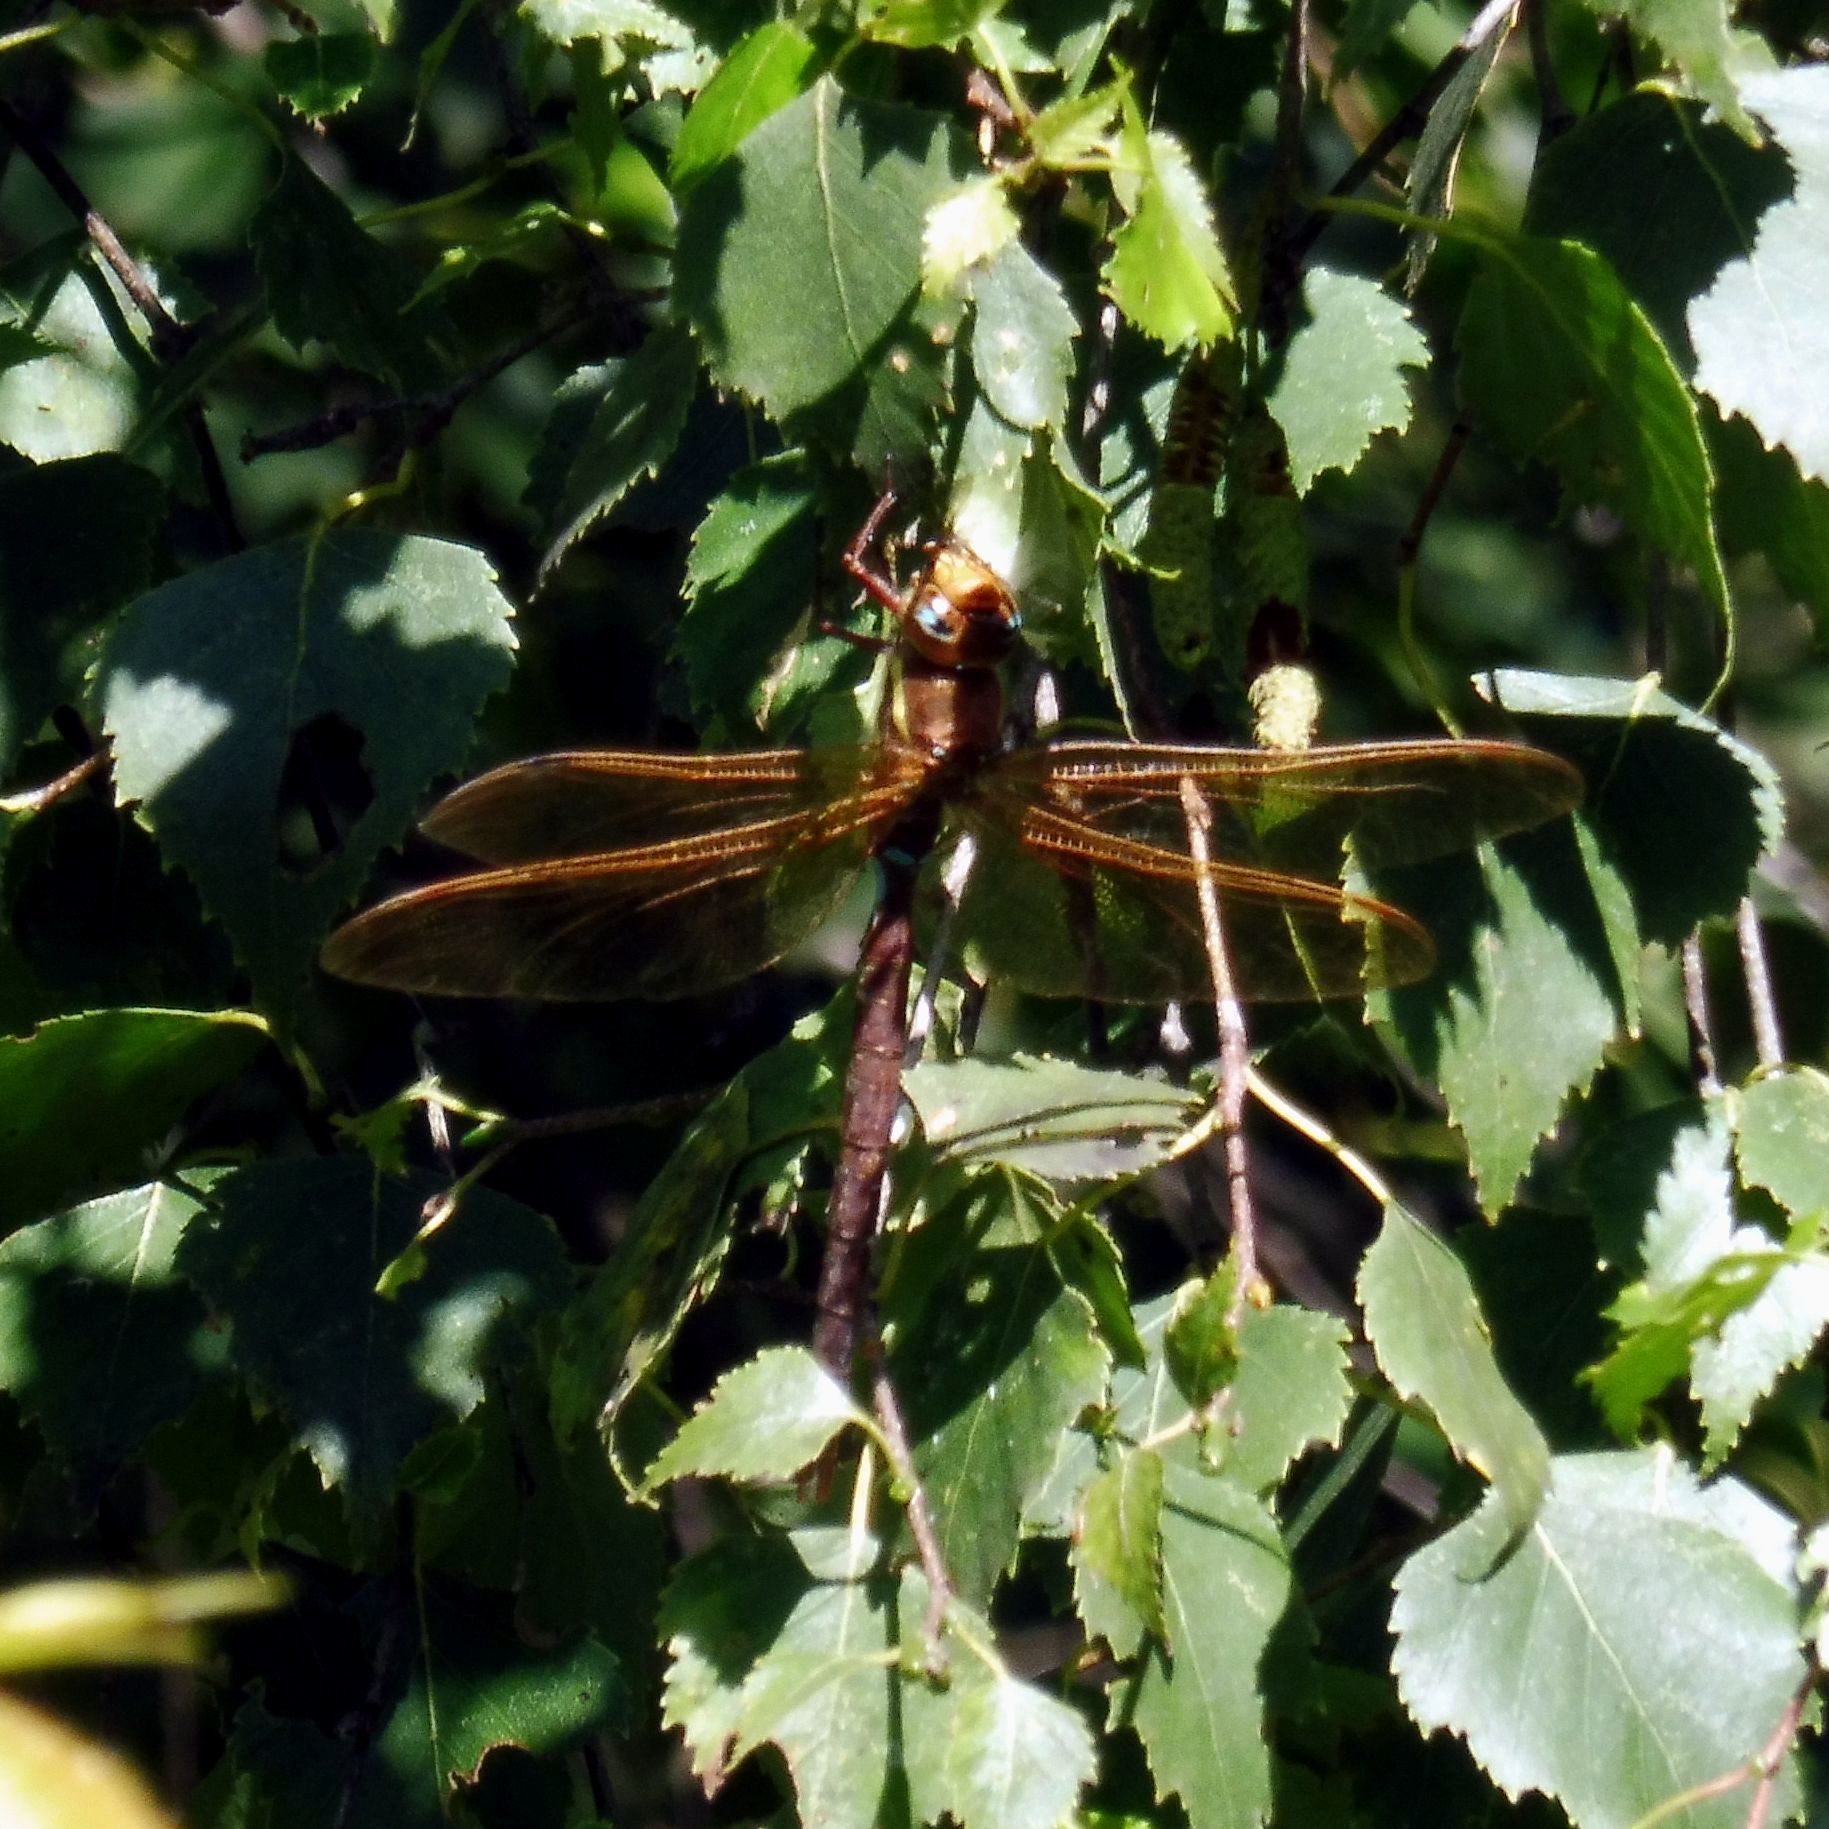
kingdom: Animalia
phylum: Arthropoda
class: Insecta
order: Odonata
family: Aeshnidae
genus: Aeshna
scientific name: Aeshna grandis
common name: Brown hawker
